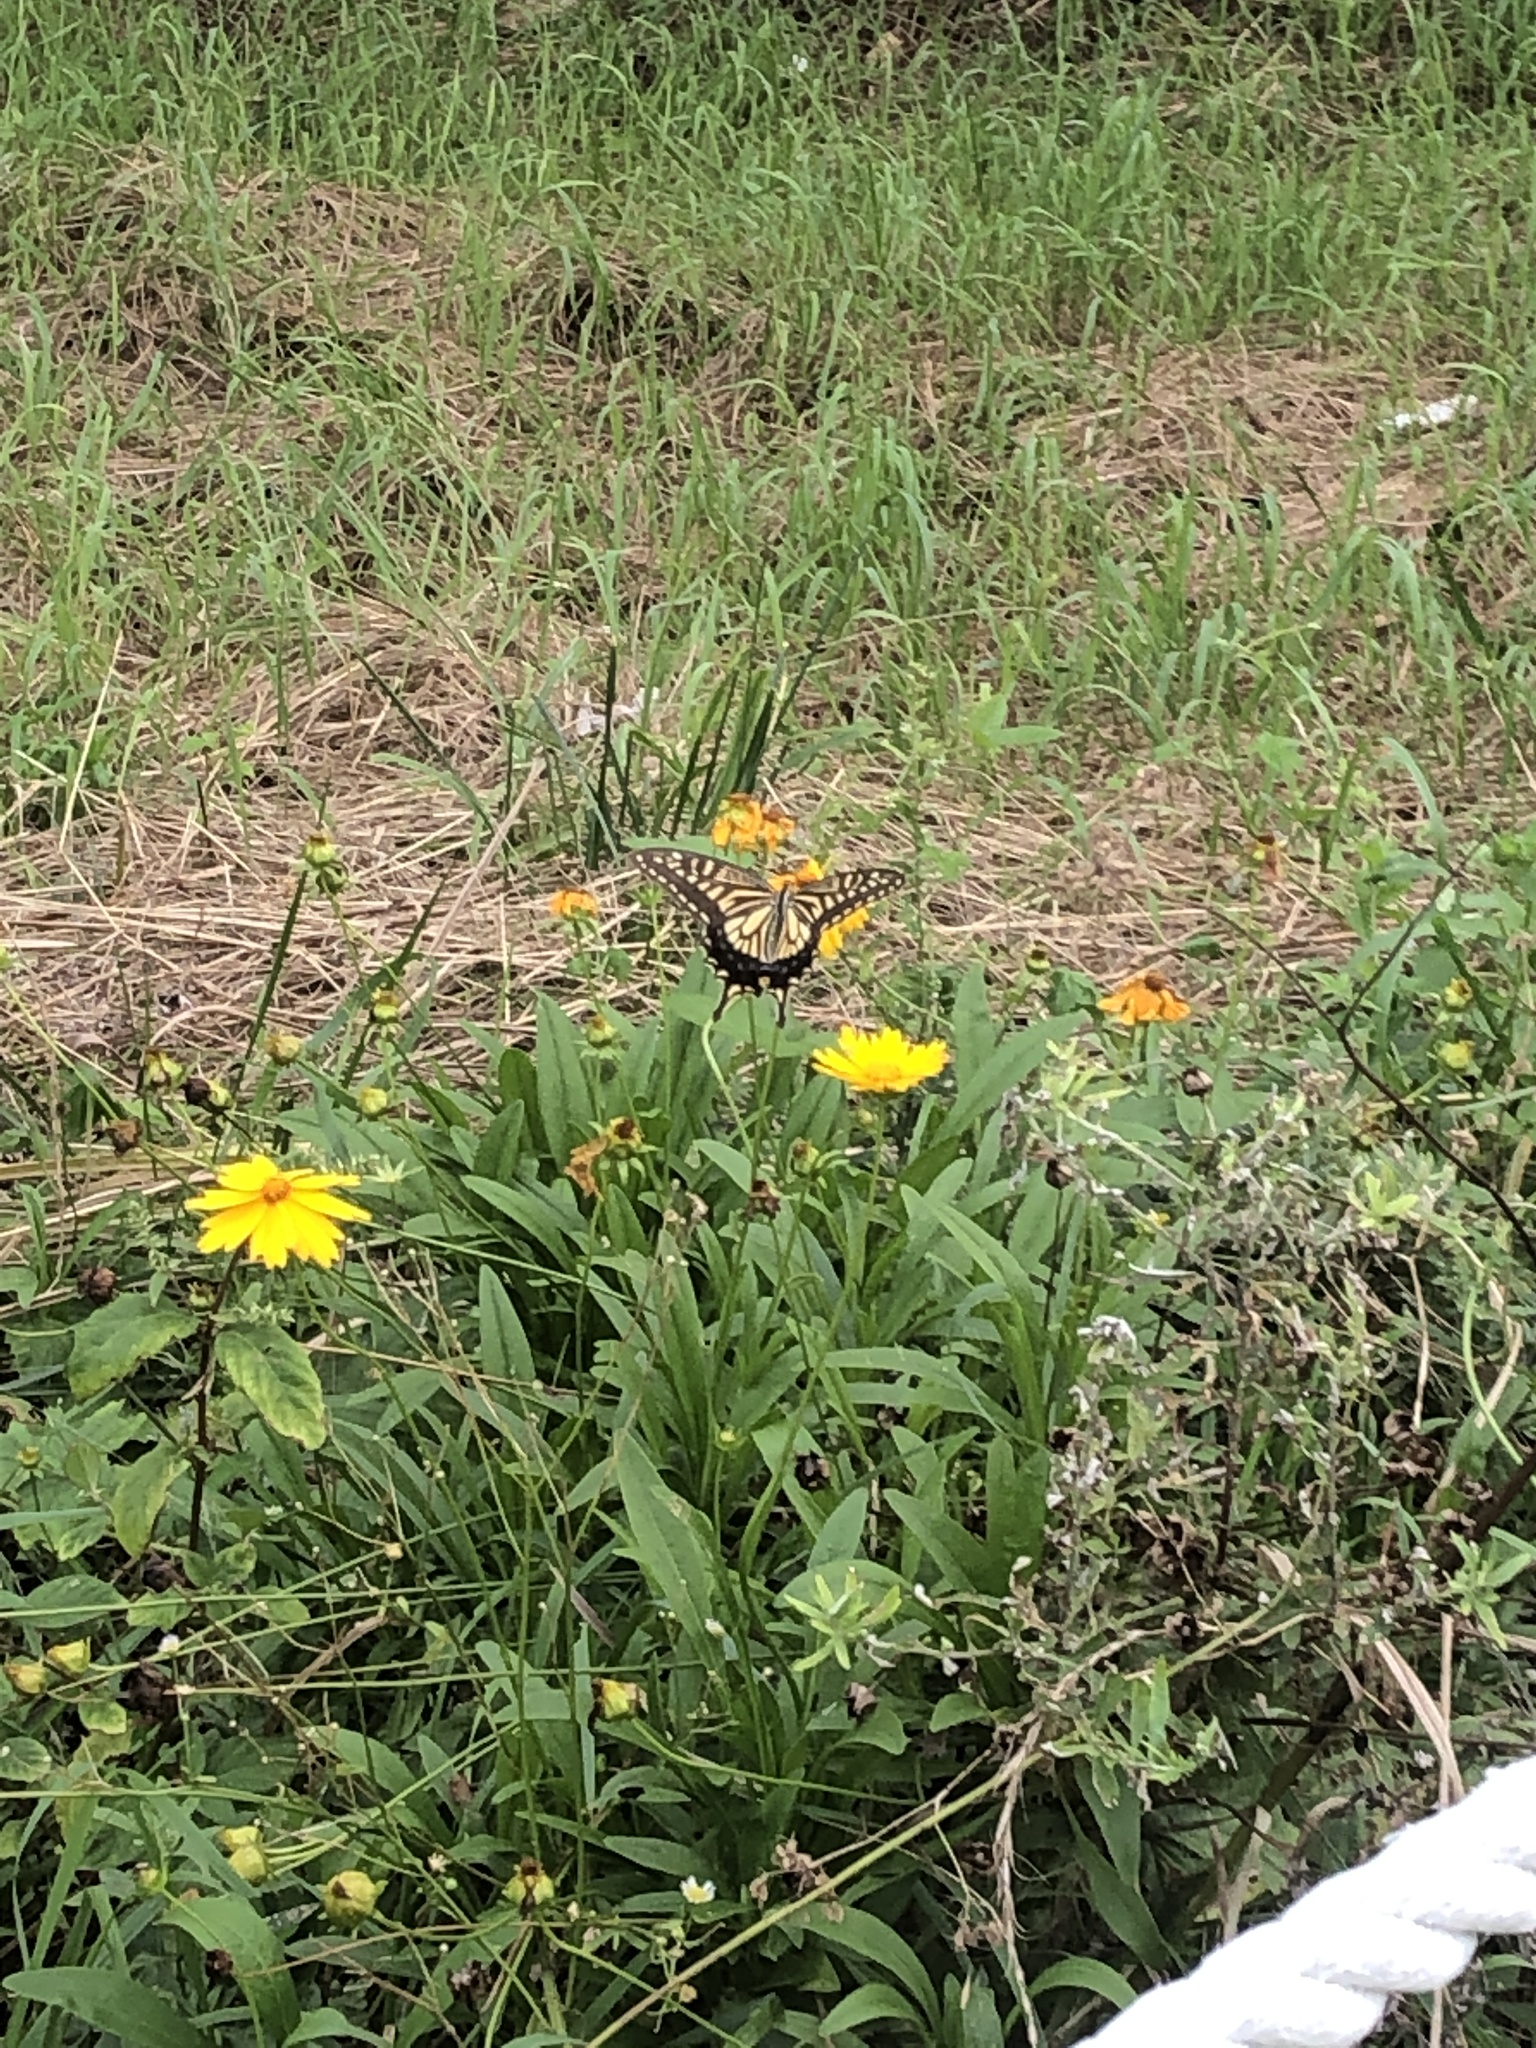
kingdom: Animalia
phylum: Arthropoda
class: Insecta
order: Lepidoptera
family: Papilionidae
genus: Papilio
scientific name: Papilio xuthus
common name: Asian swallowtail
